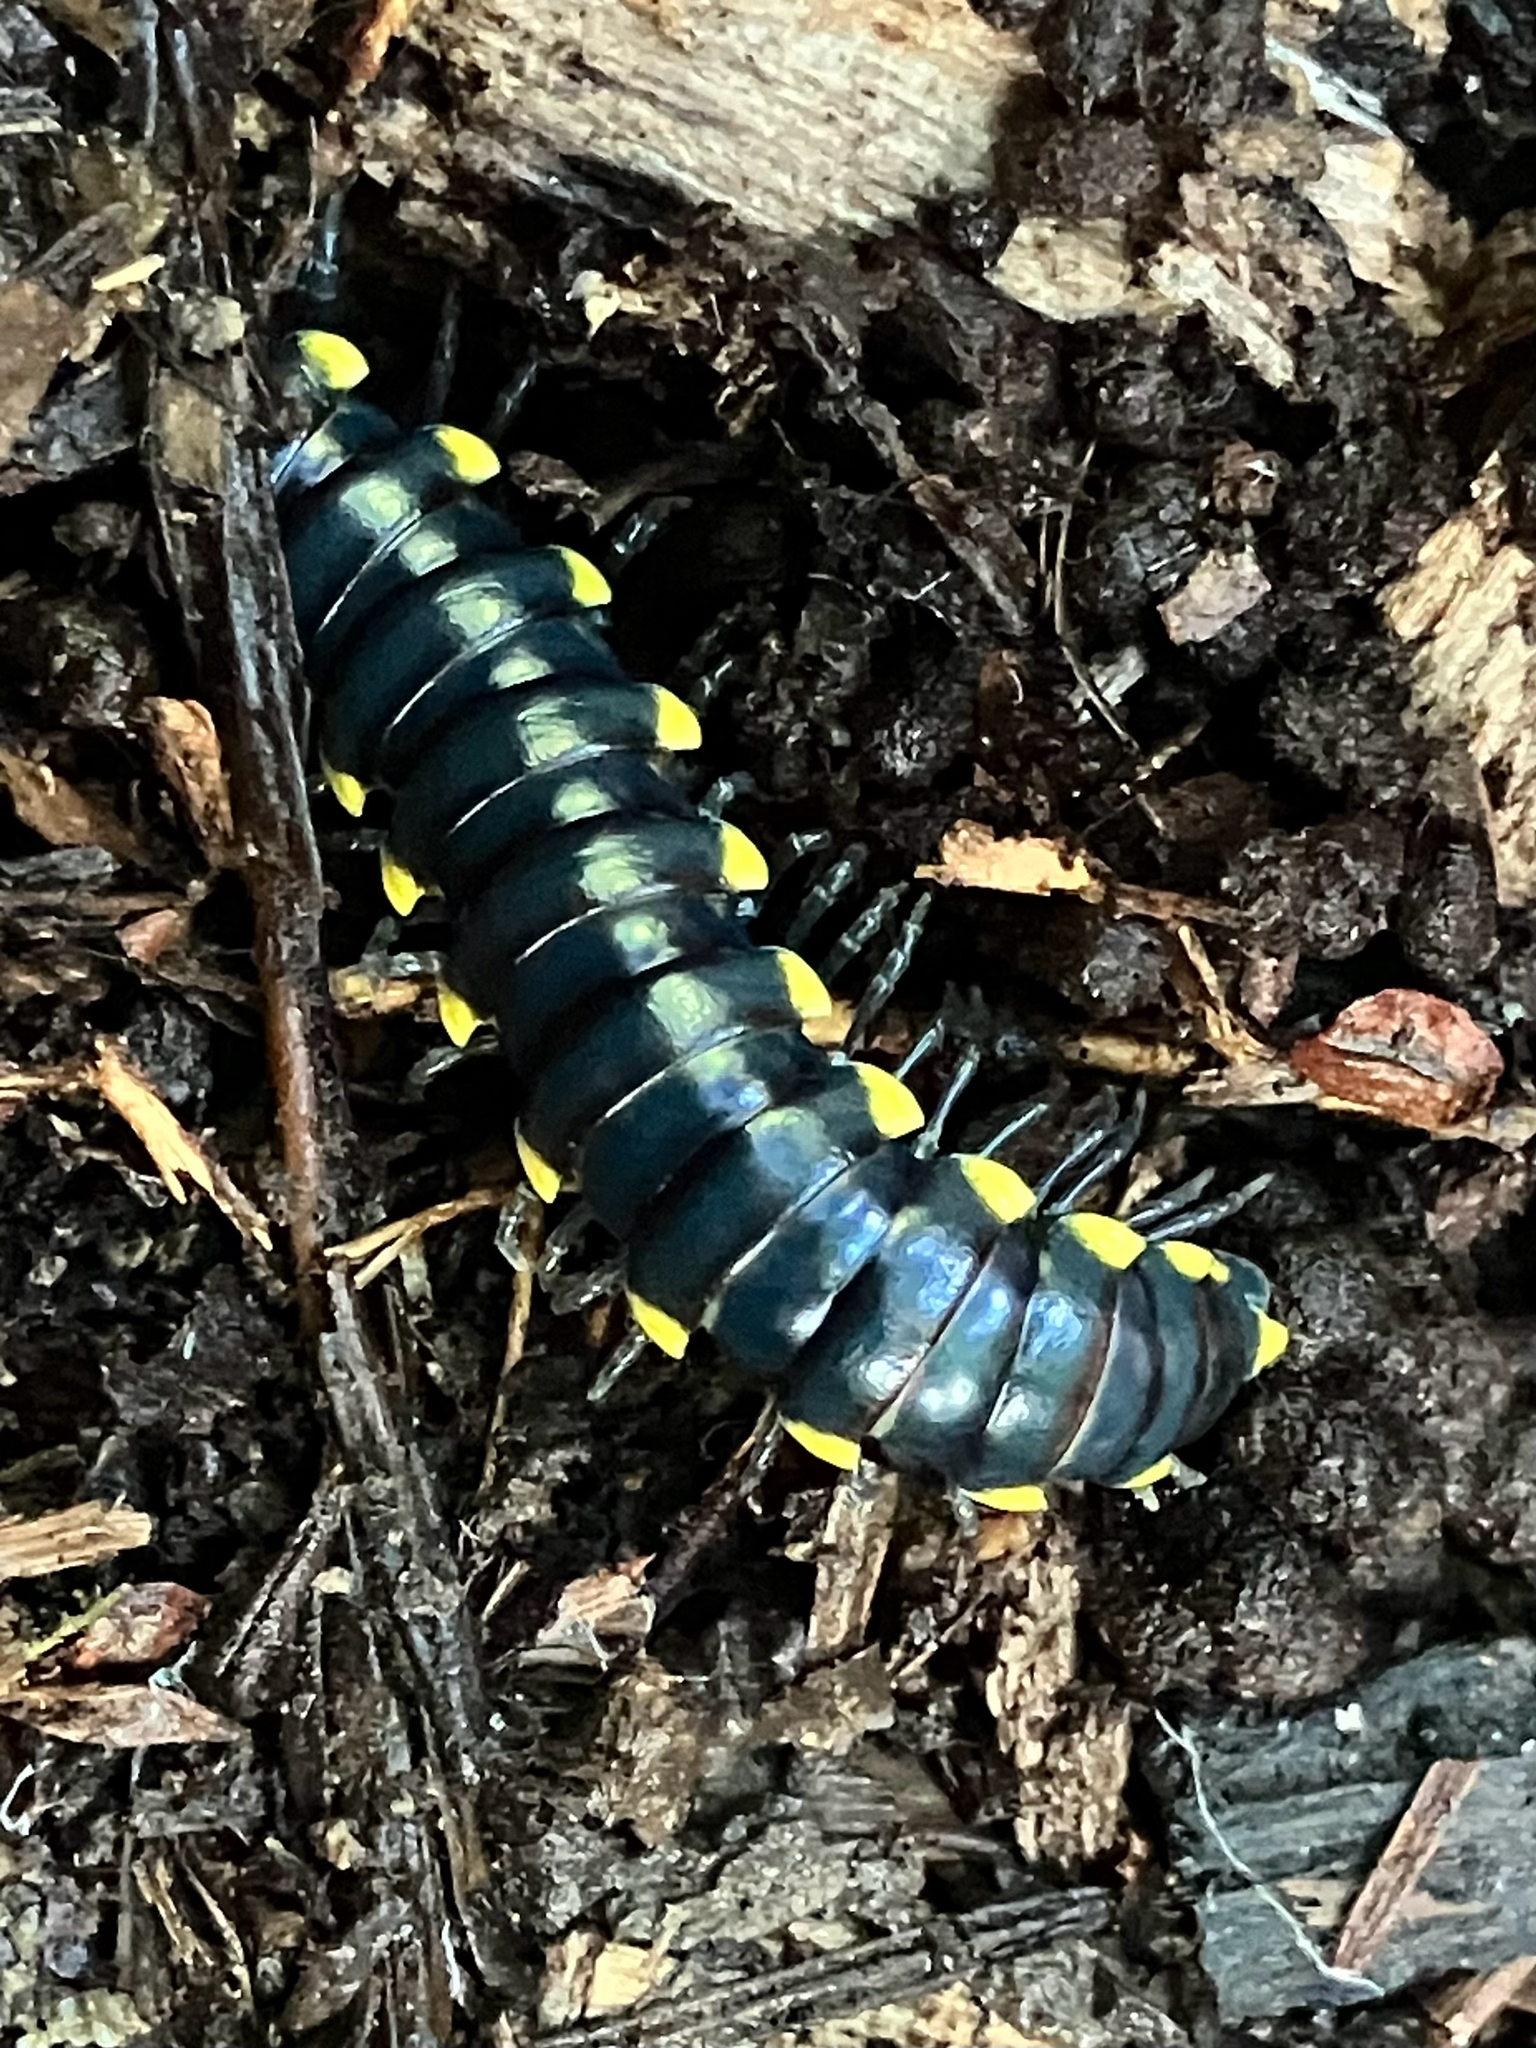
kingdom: Animalia
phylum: Arthropoda
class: Diplopoda
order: Polydesmida
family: Xystodesmidae
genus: Harpaphe
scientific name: Harpaphe haydeniana
